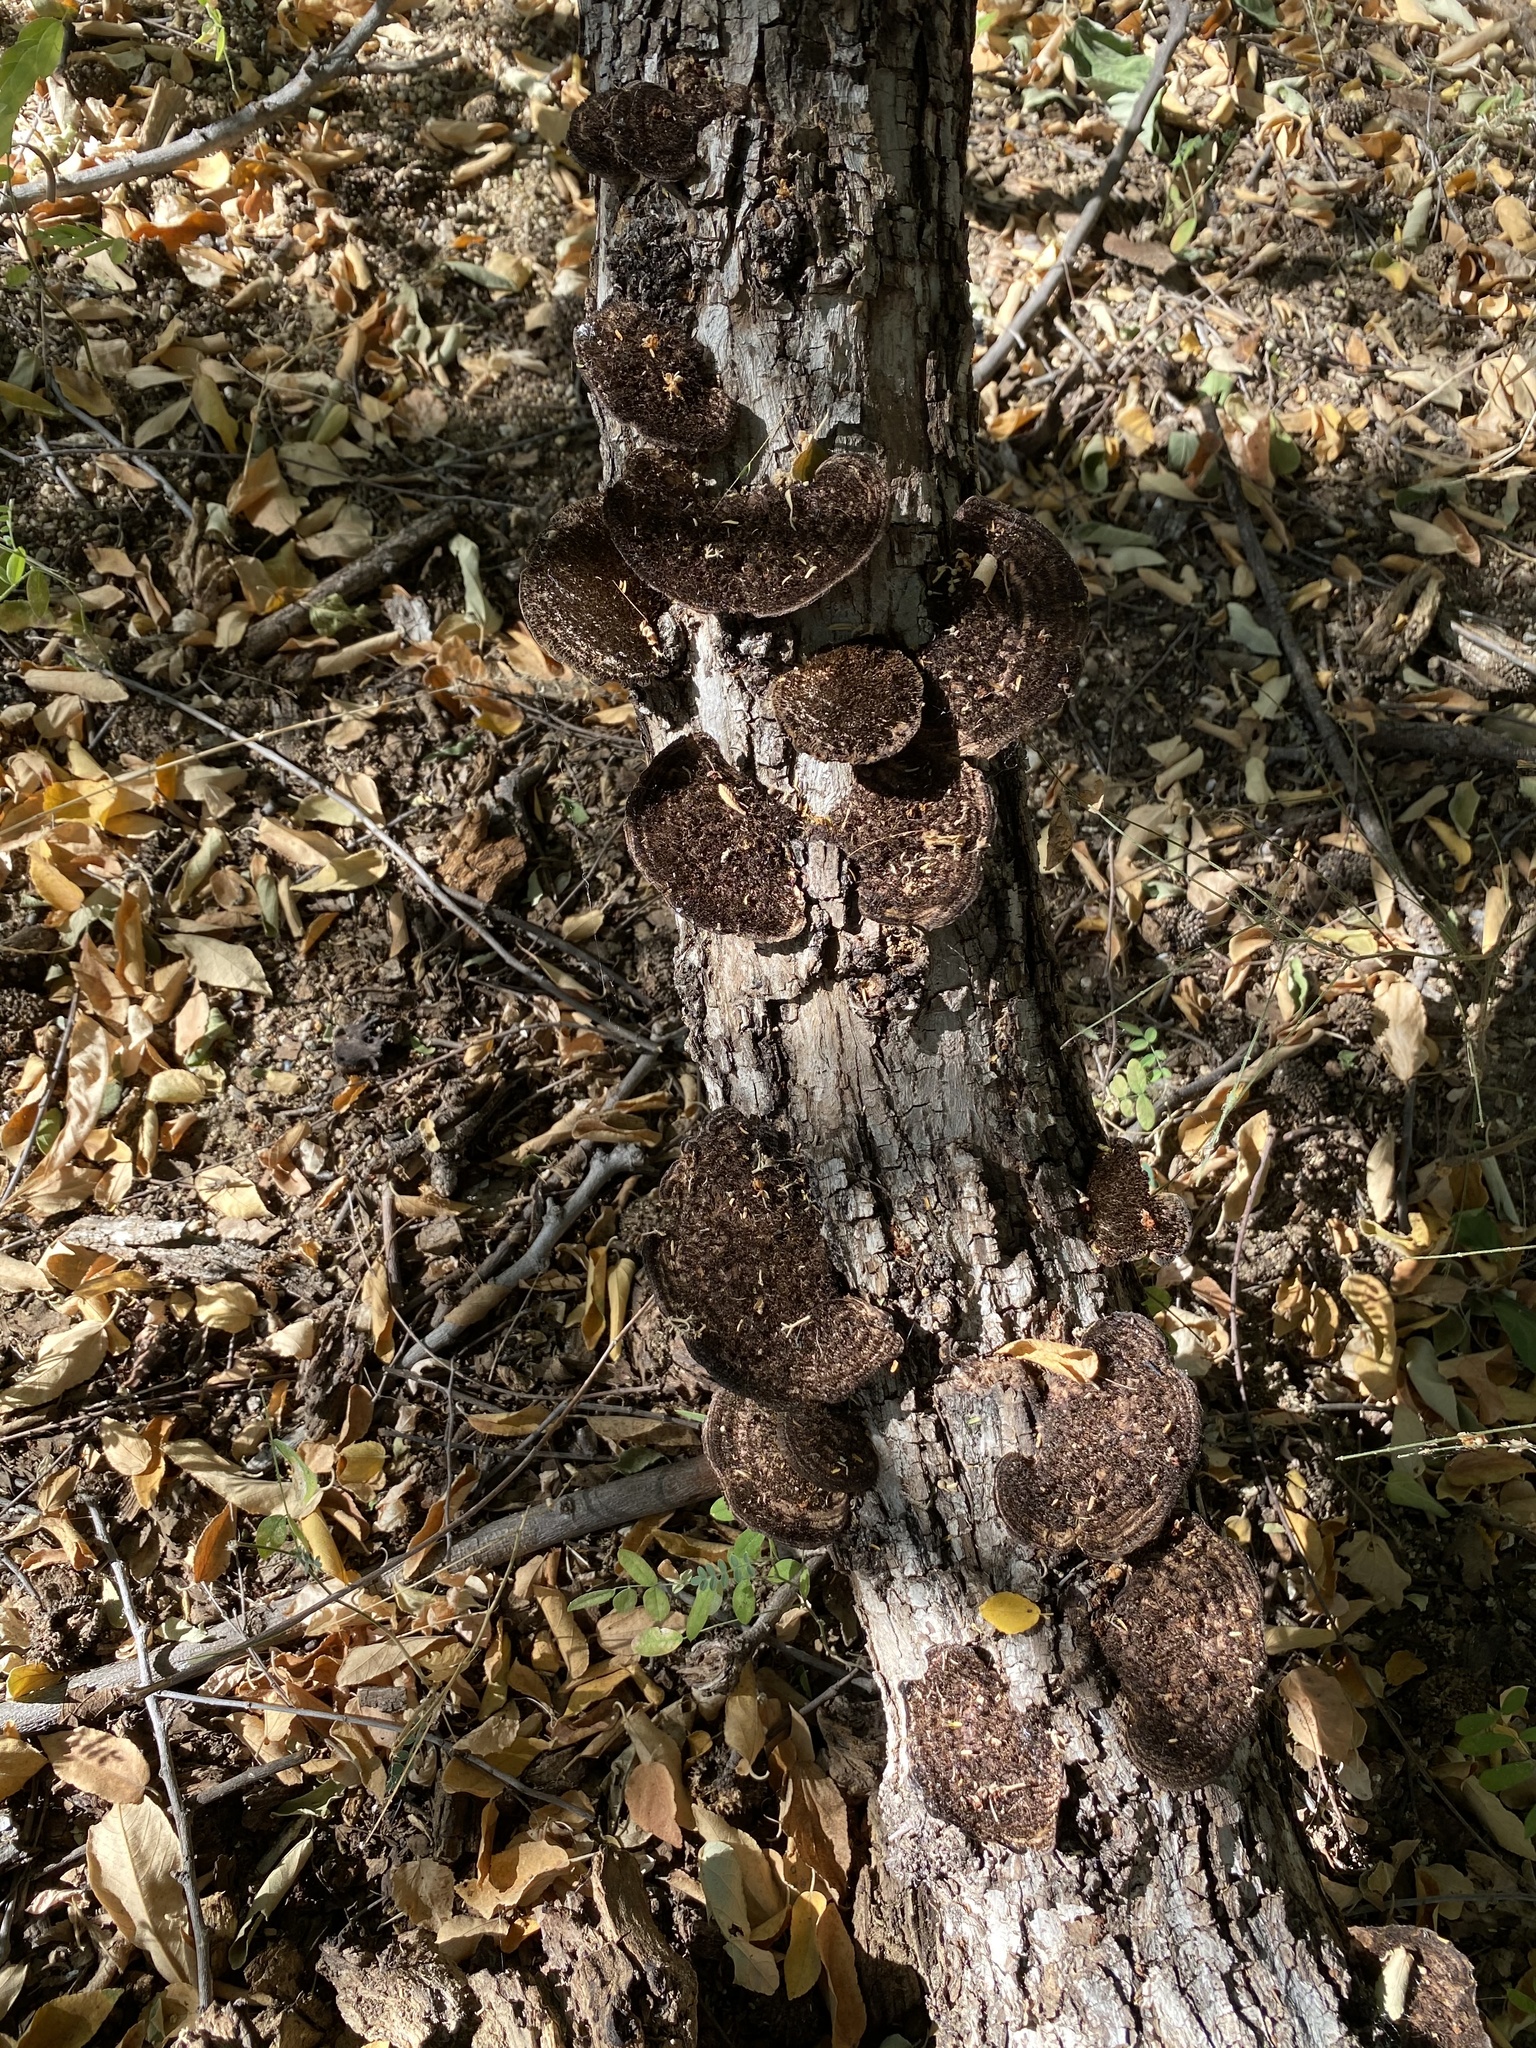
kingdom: Fungi
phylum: Basidiomycota
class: Agaricomycetes
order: Polyporales
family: Cerrenaceae
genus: Cerrena
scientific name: Cerrena hydnoides
